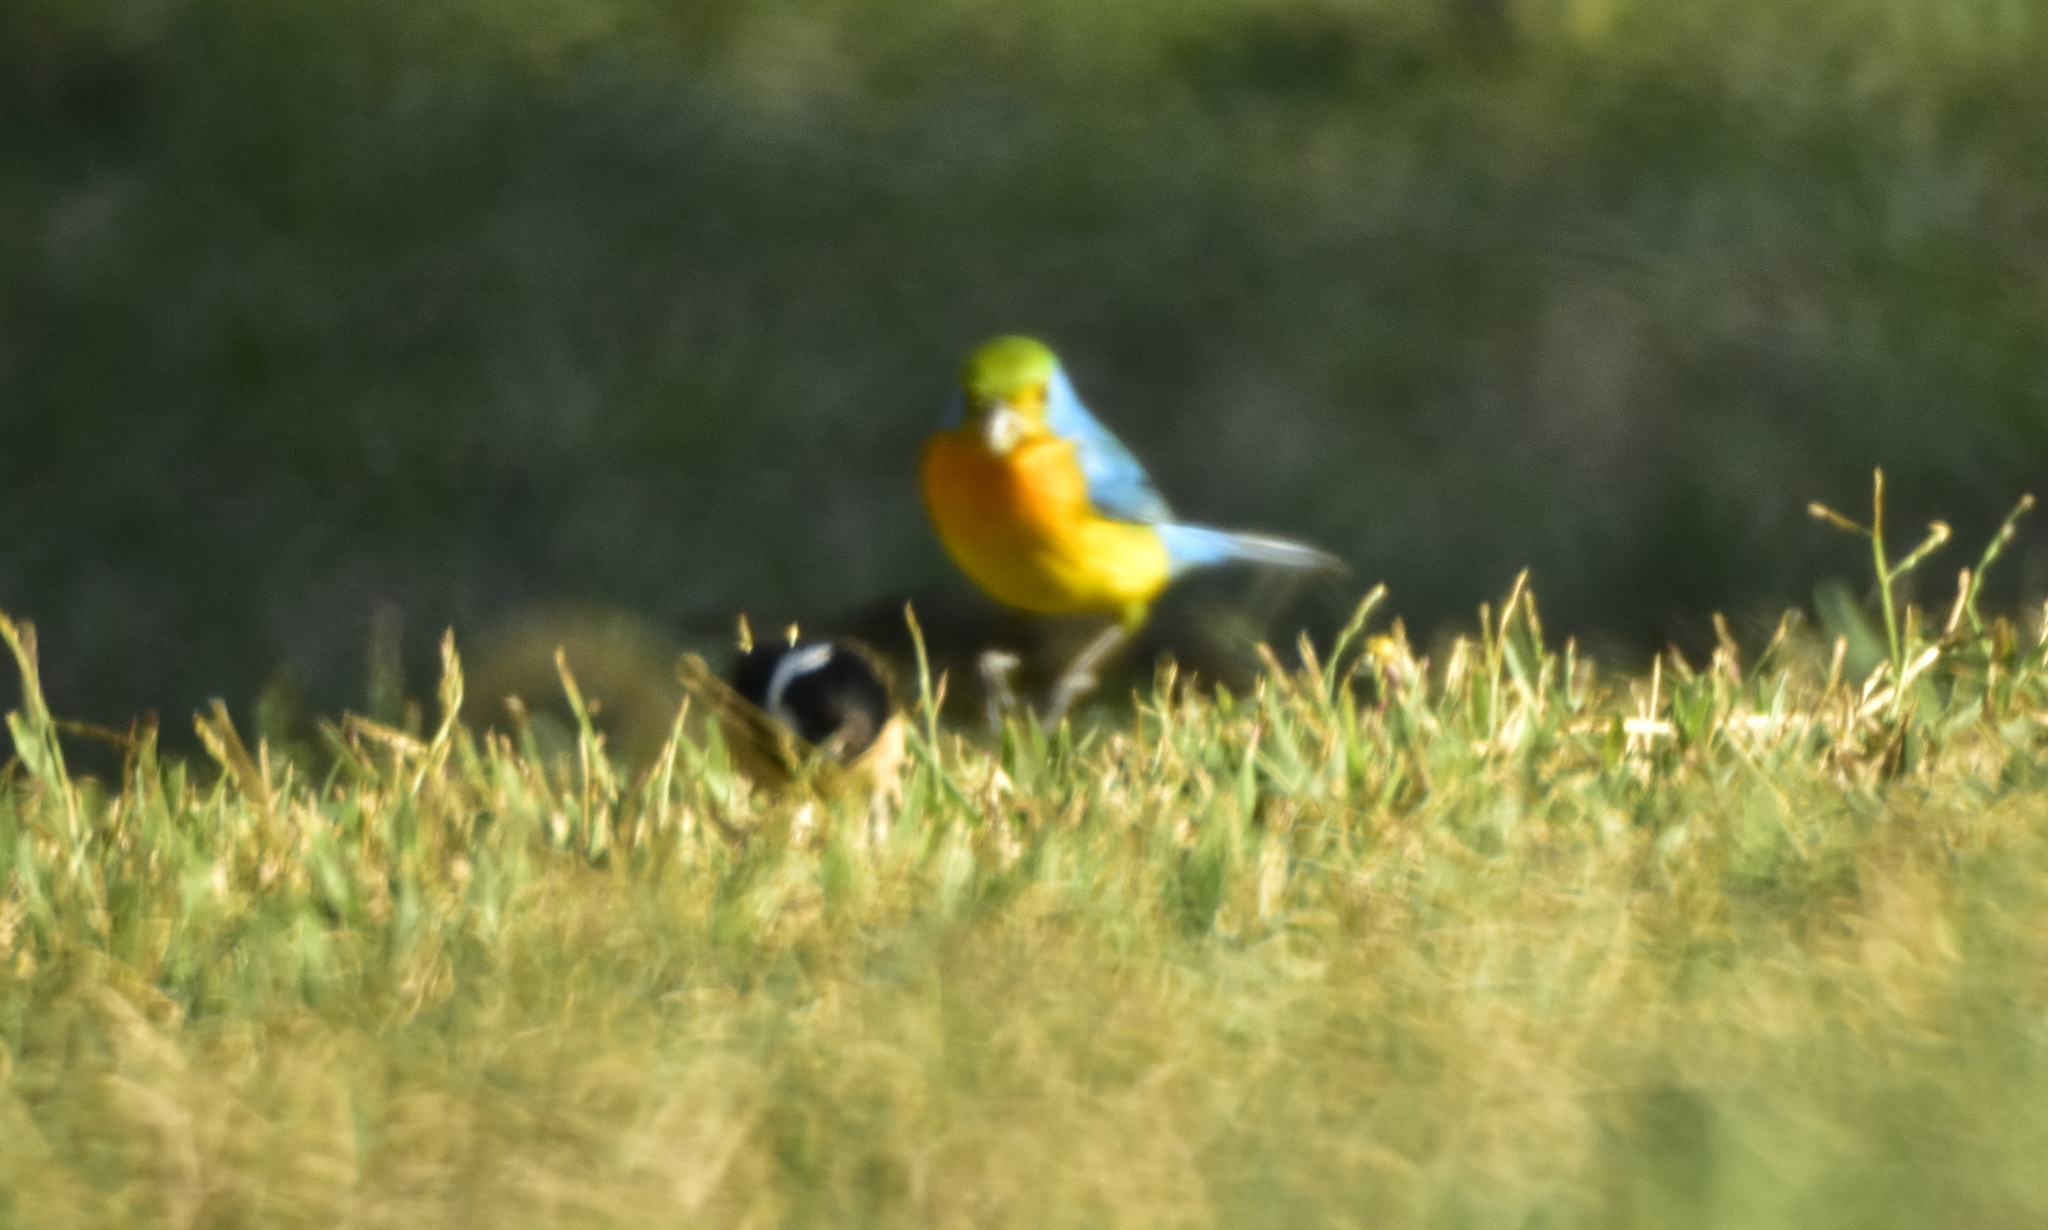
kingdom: Animalia
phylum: Chordata
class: Aves
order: Passeriformes
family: Cardinalidae
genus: Passerina
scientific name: Passerina leclancherii
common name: Orange-breasted bunting
